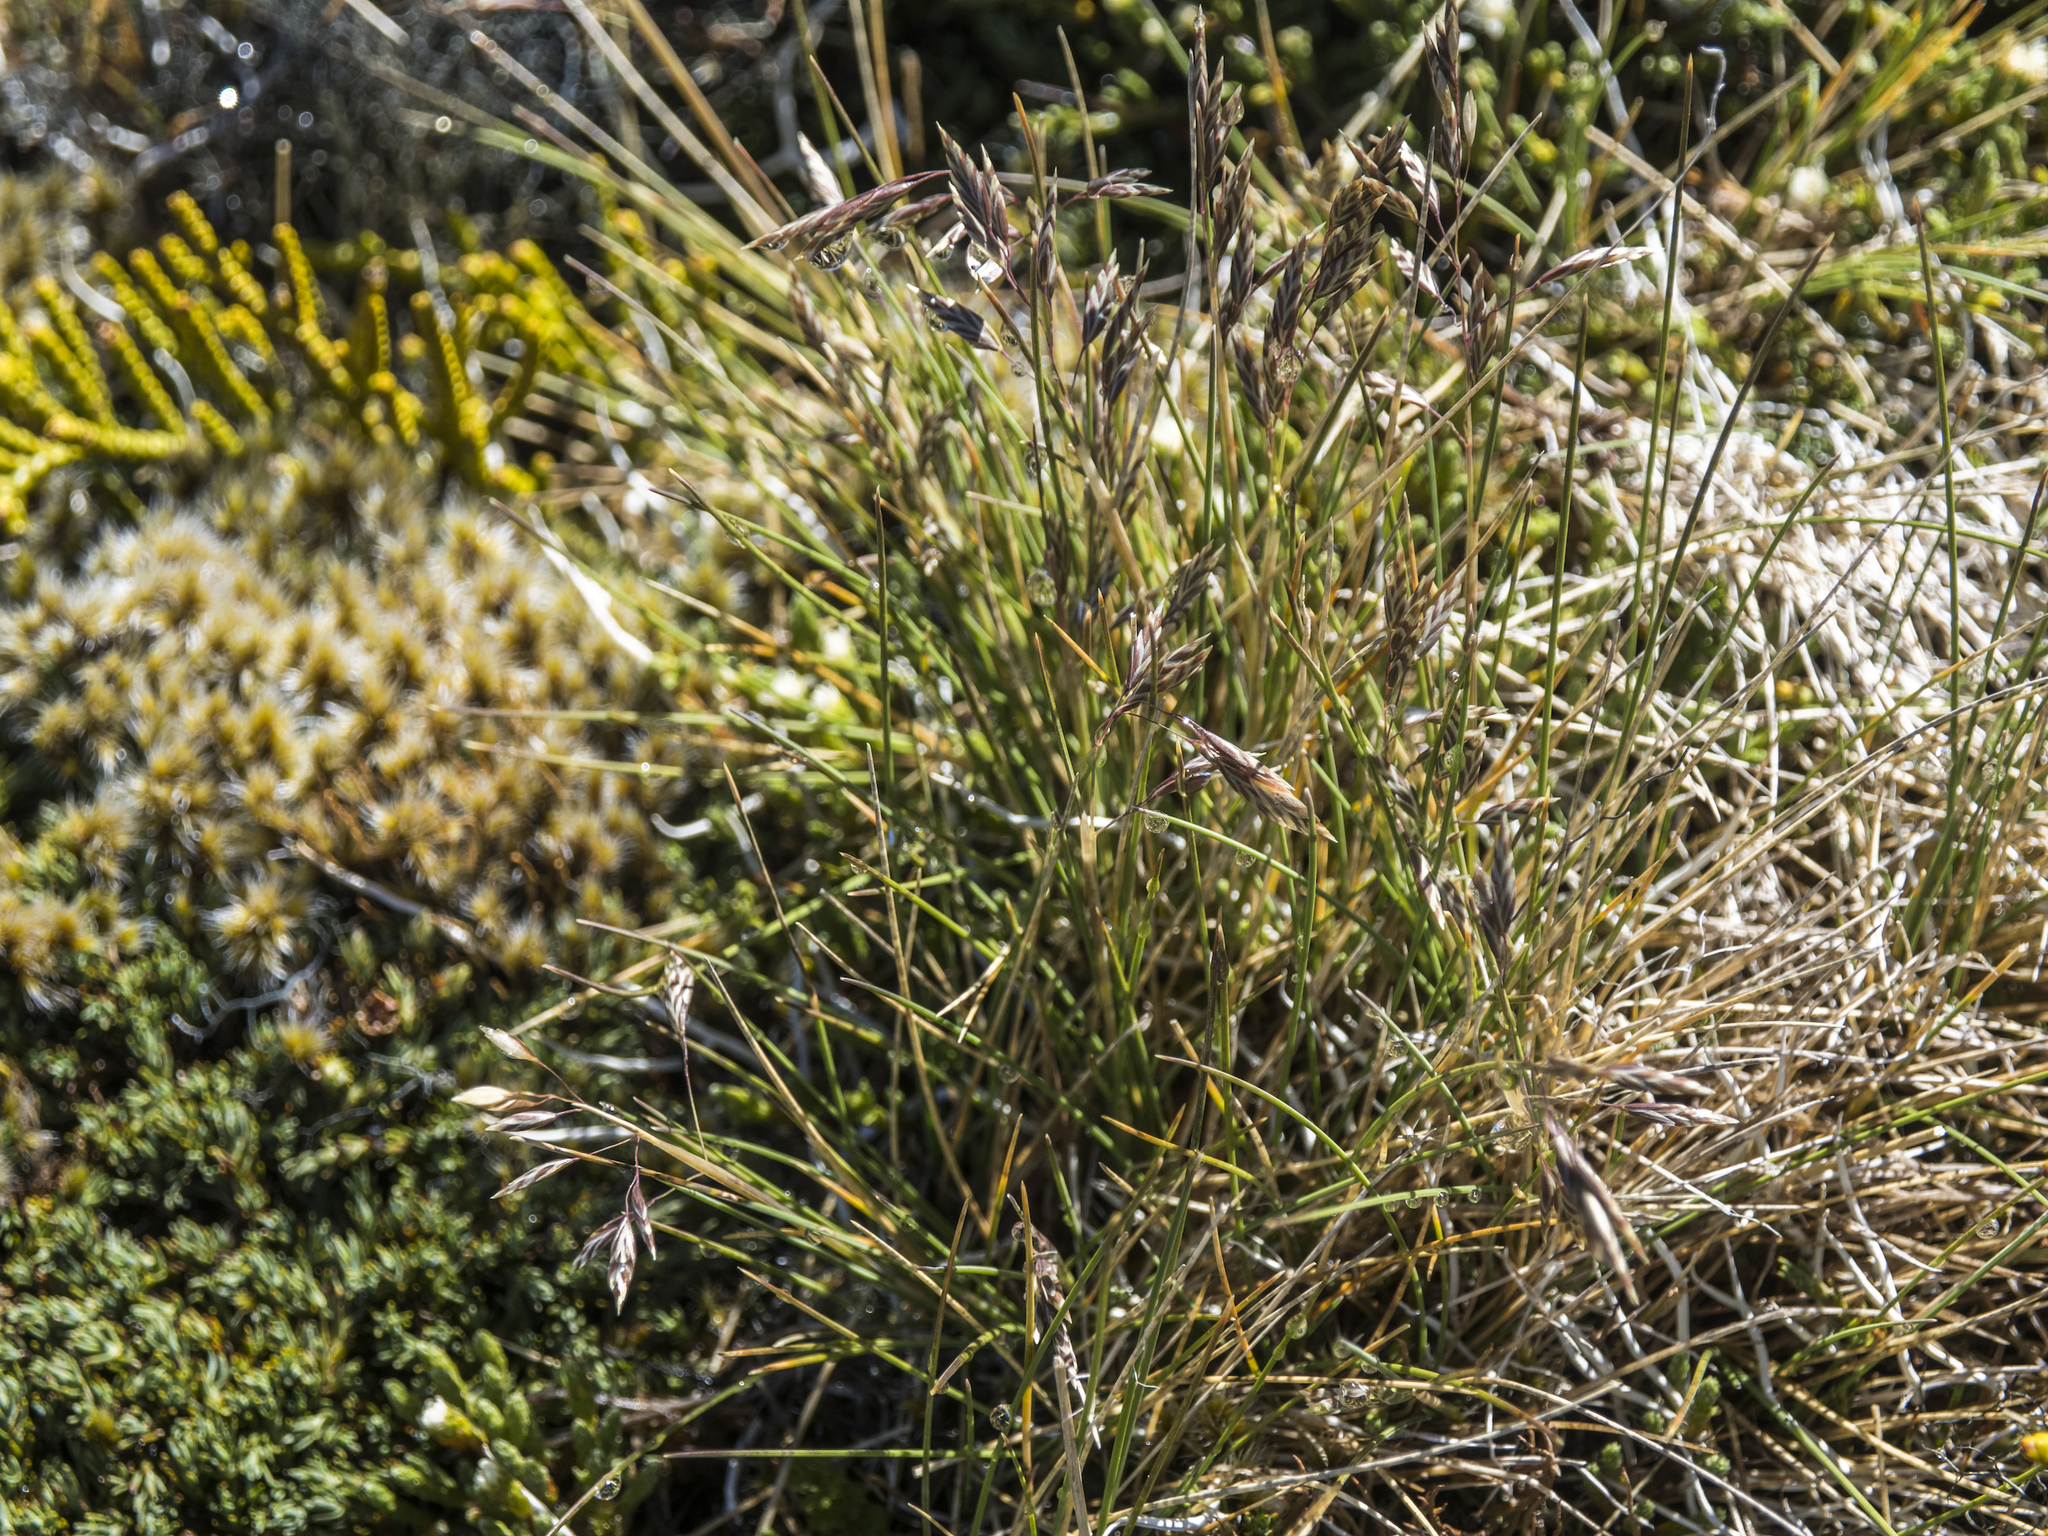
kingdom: Plantae
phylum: Tracheophyta
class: Liliopsida
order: Poales
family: Poaceae
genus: Poa
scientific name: Poa colensoi
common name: Blue tussock
